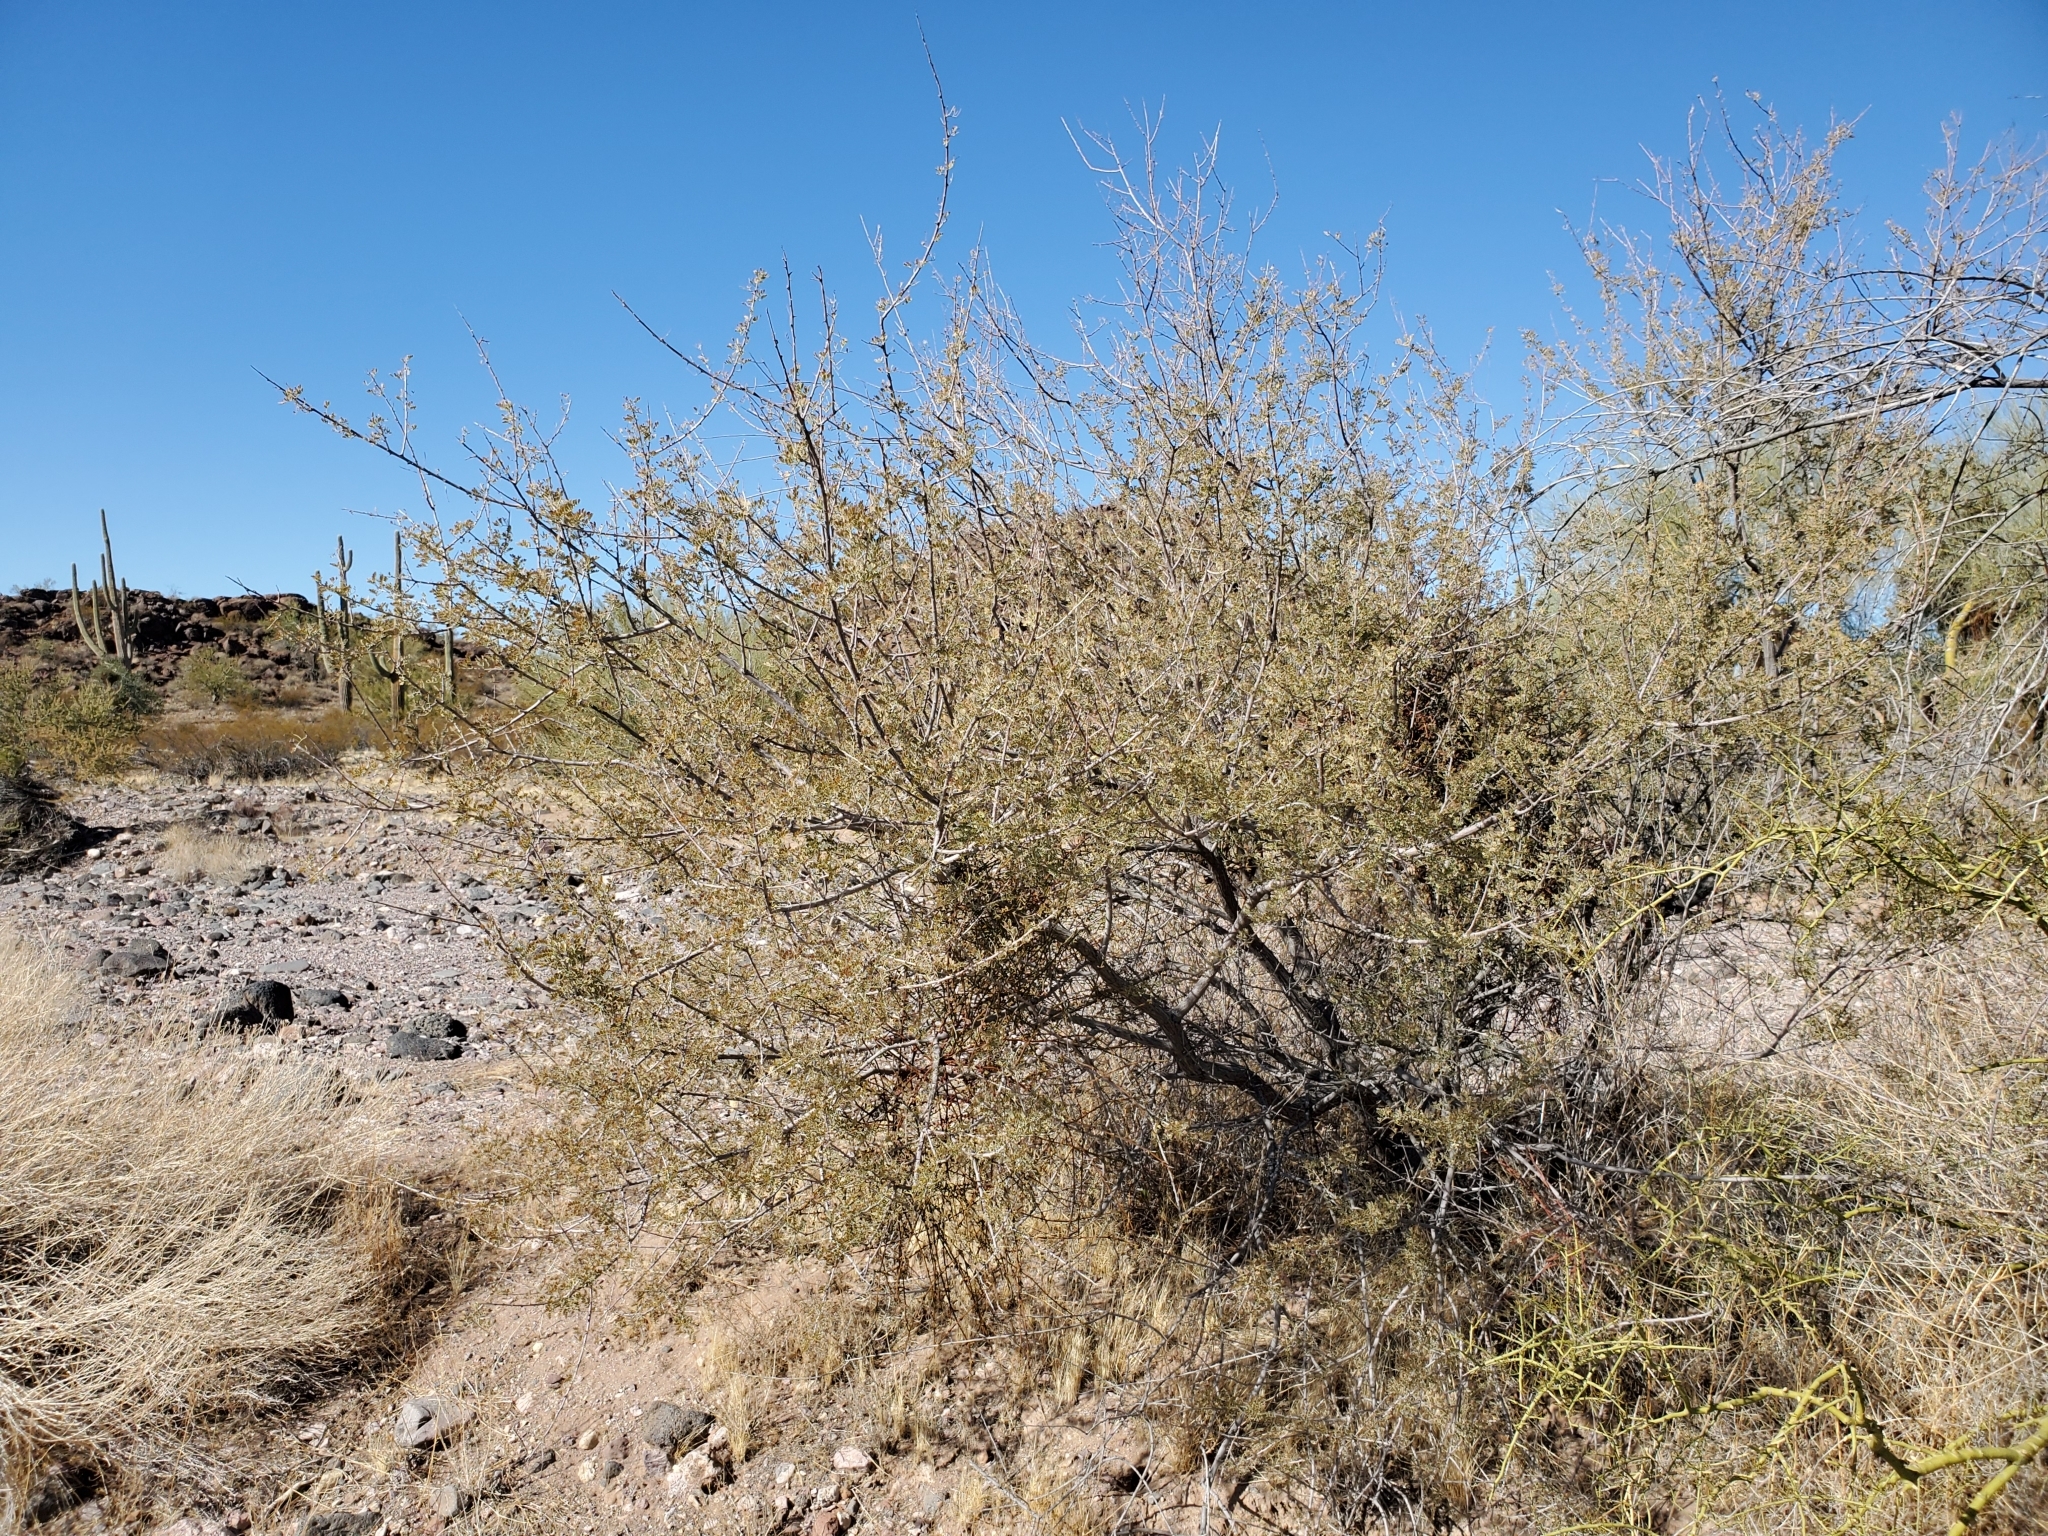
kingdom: Plantae
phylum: Tracheophyta
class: Magnoliopsida
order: Fabales
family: Fabaceae
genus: Senegalia
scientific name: Senegalia greggii
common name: Texas-mimosa
